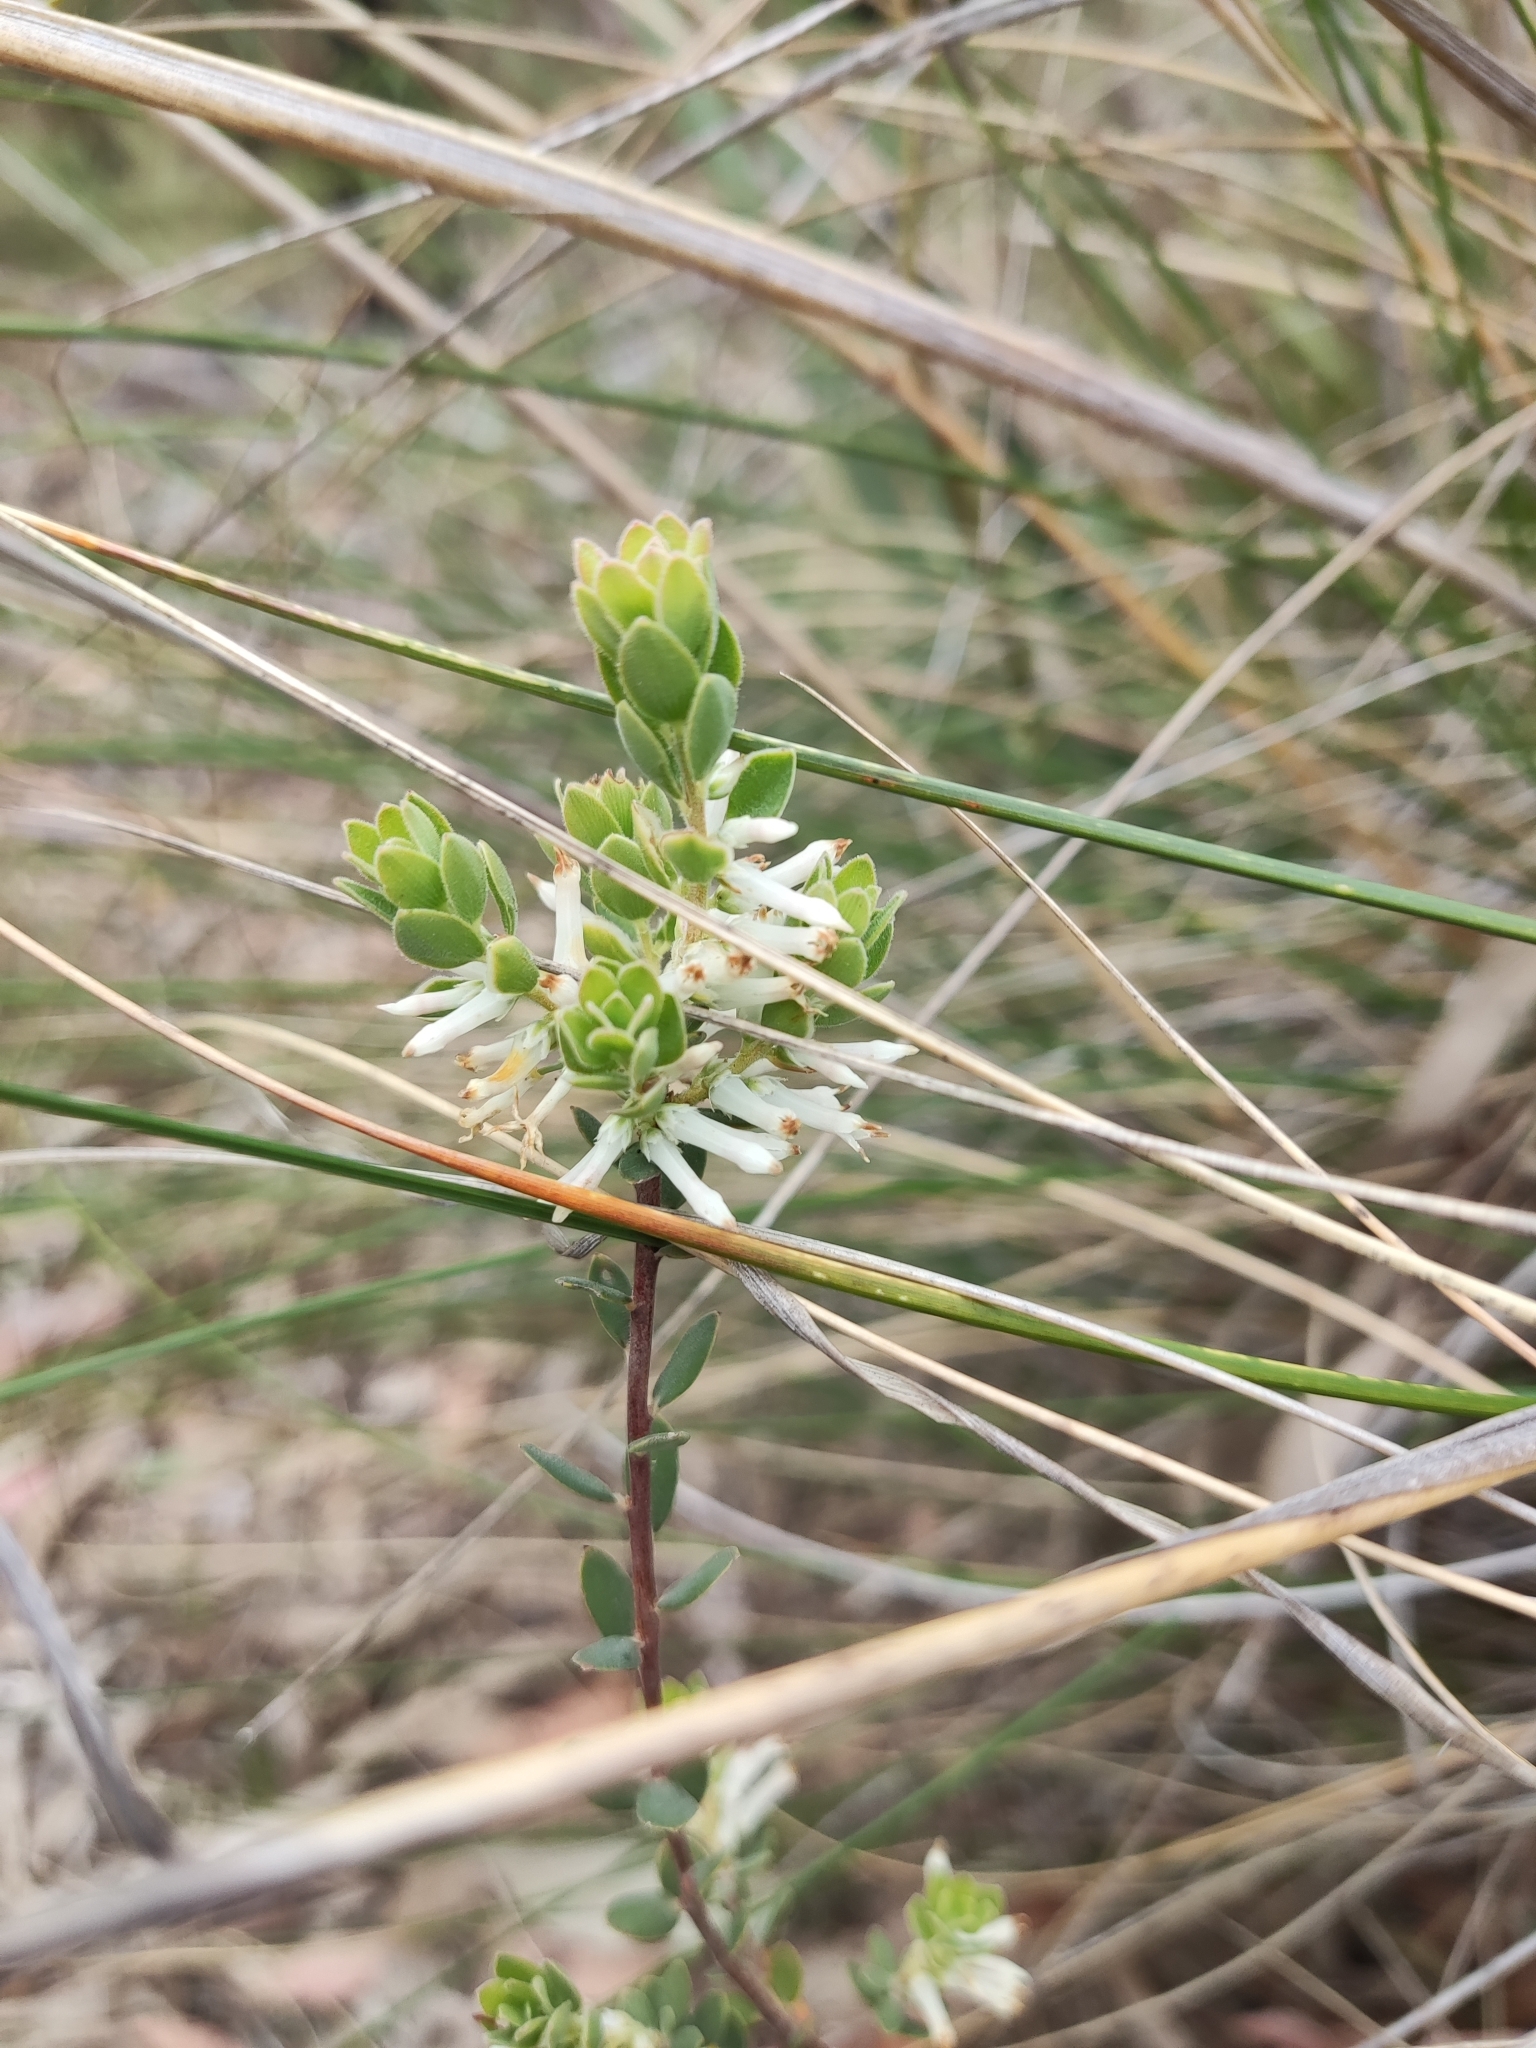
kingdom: Plantae
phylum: Tracheophyta
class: Magnoliopsida
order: Ericales
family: Ericaceae
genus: Brachyloma
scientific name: Brachyloma daphnoides
